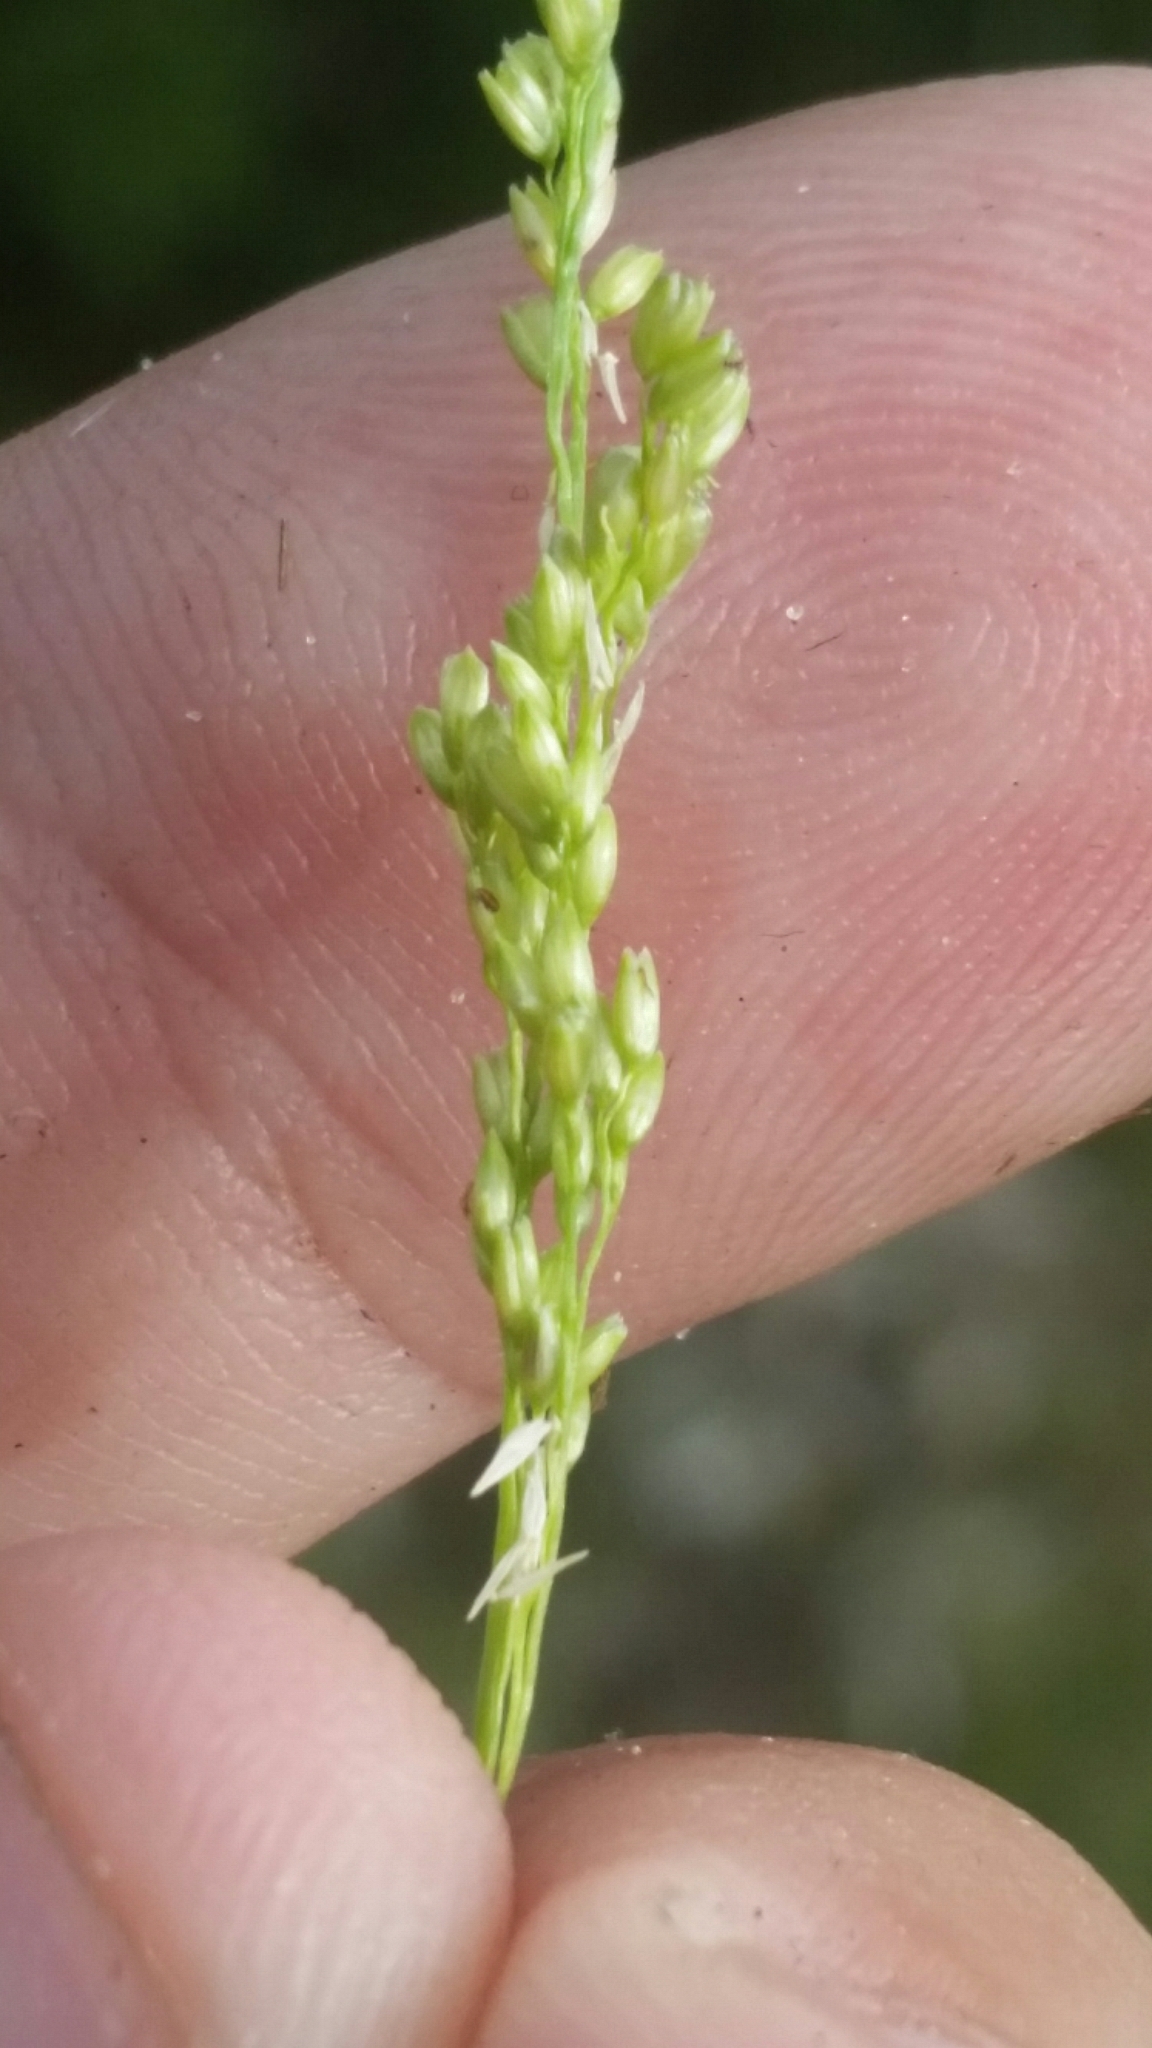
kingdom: Plantae
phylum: Tracheophyta
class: Liliopsida
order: Poales
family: Poaceae
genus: Steinchisma
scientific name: Steinchisma hians
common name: Gaping panic grass
